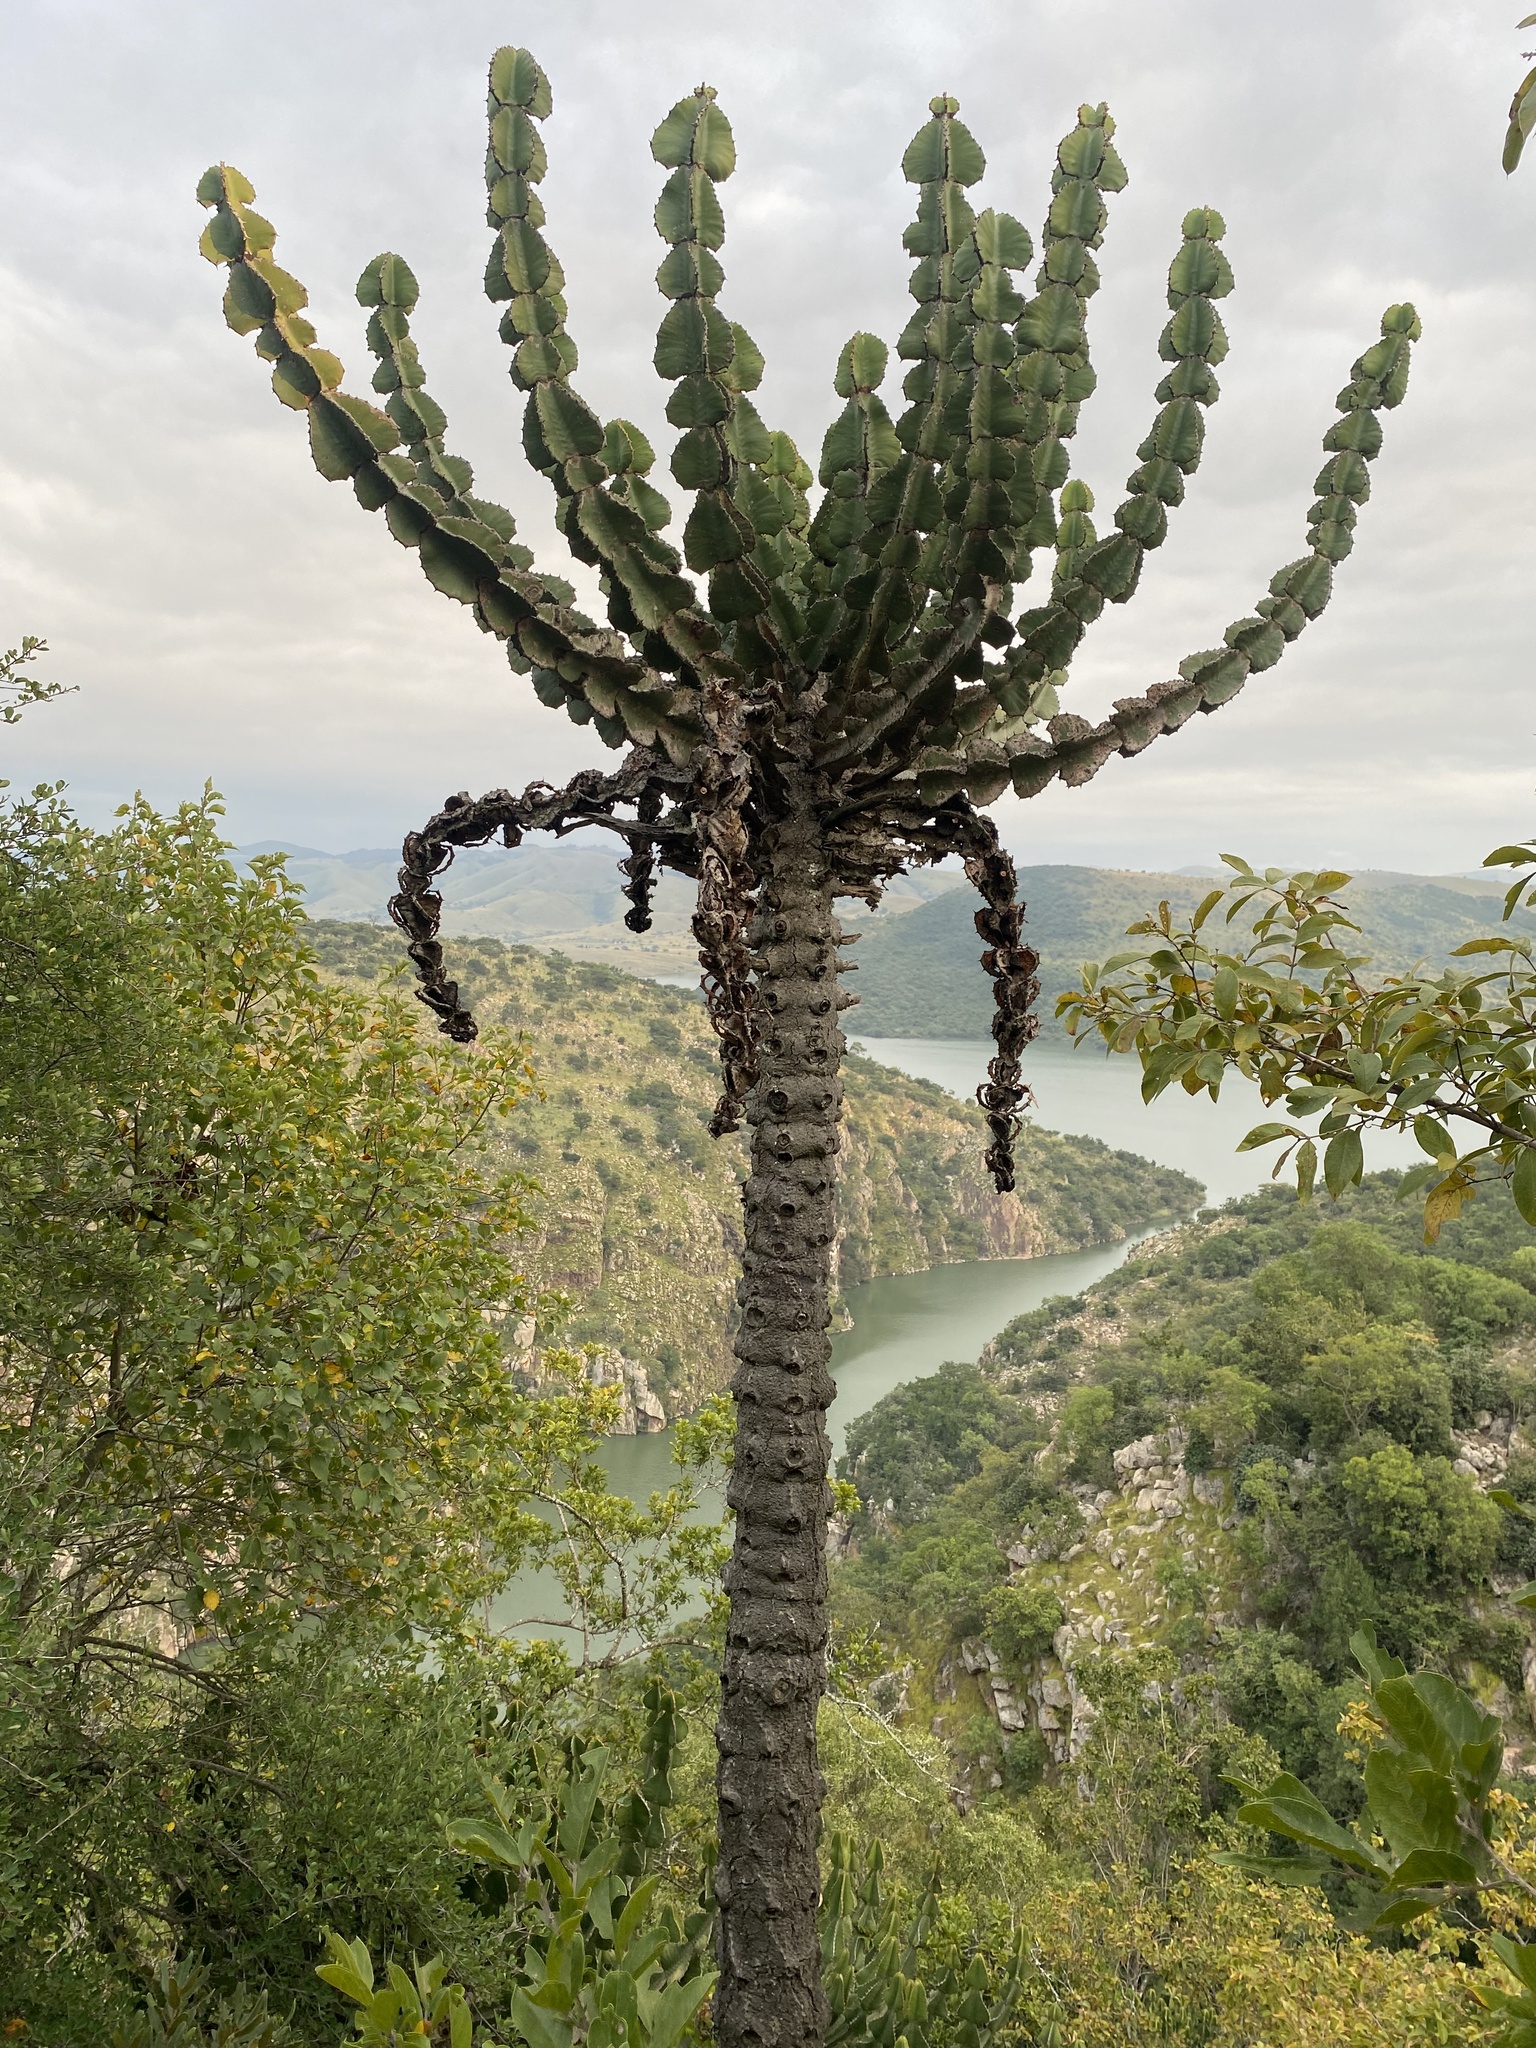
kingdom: Plantae
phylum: Tracheophyta
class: Magnoliopsida
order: Malpighiales
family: Euphorbiaceae
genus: Euphorbia
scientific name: Euphorbia cooperi
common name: Candelabra tree
